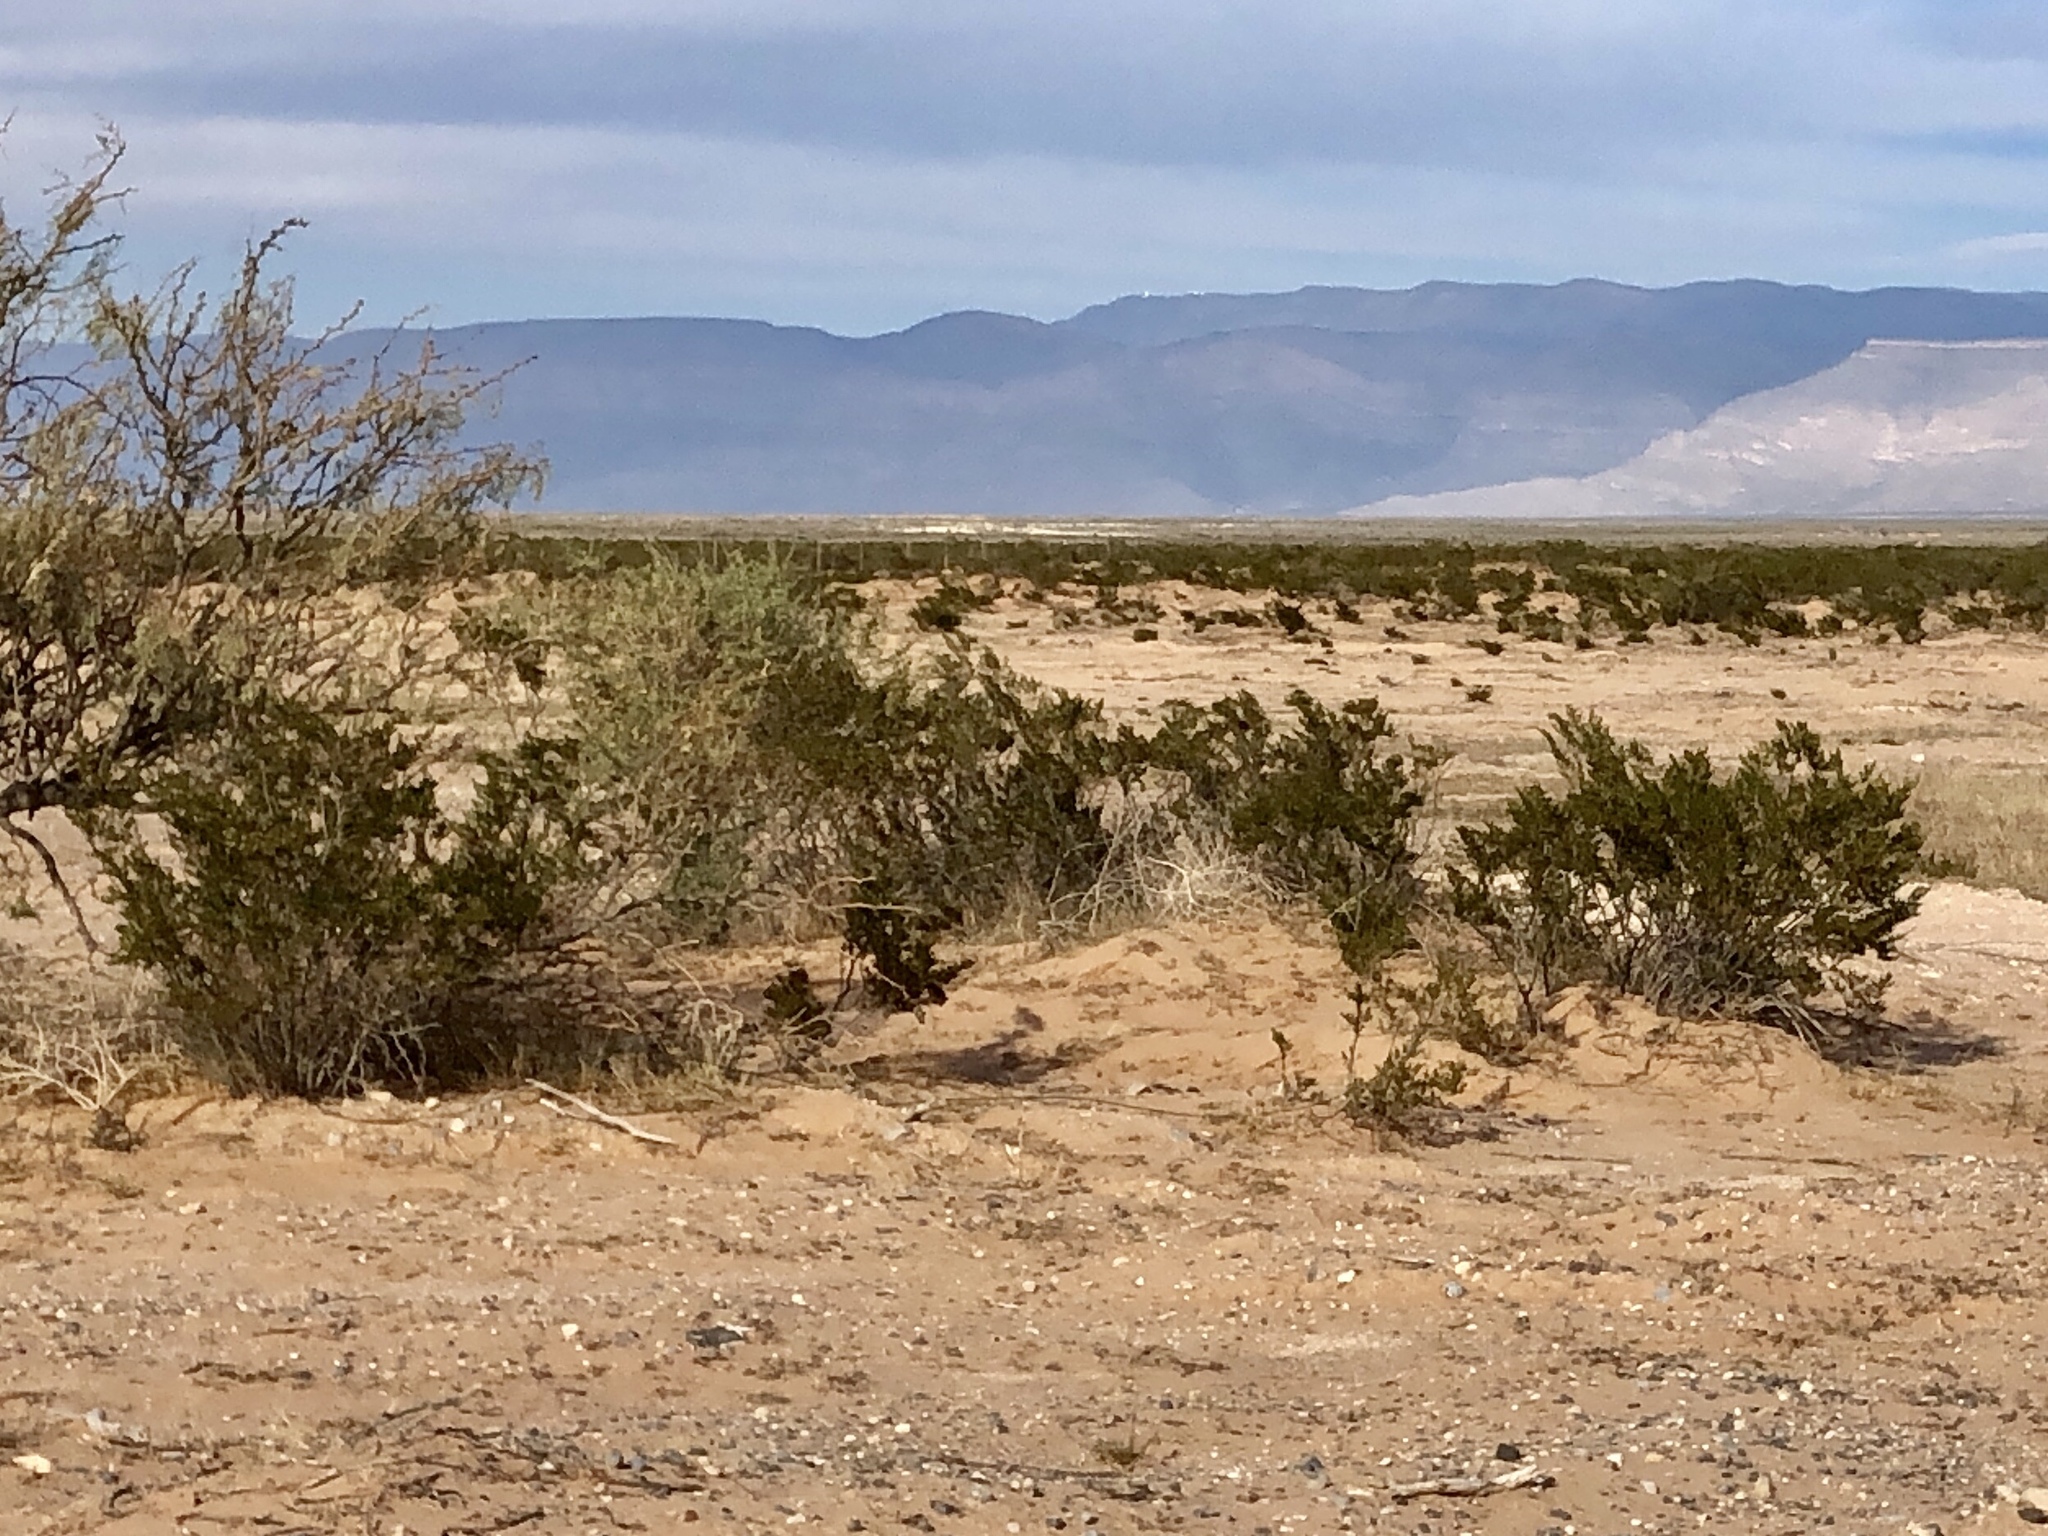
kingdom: Plantae
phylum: Tracheophyta
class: Magnoliopsida
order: Zygophyllales
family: Zygophyllaceae
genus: Larrea
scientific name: Larrea tridentata
